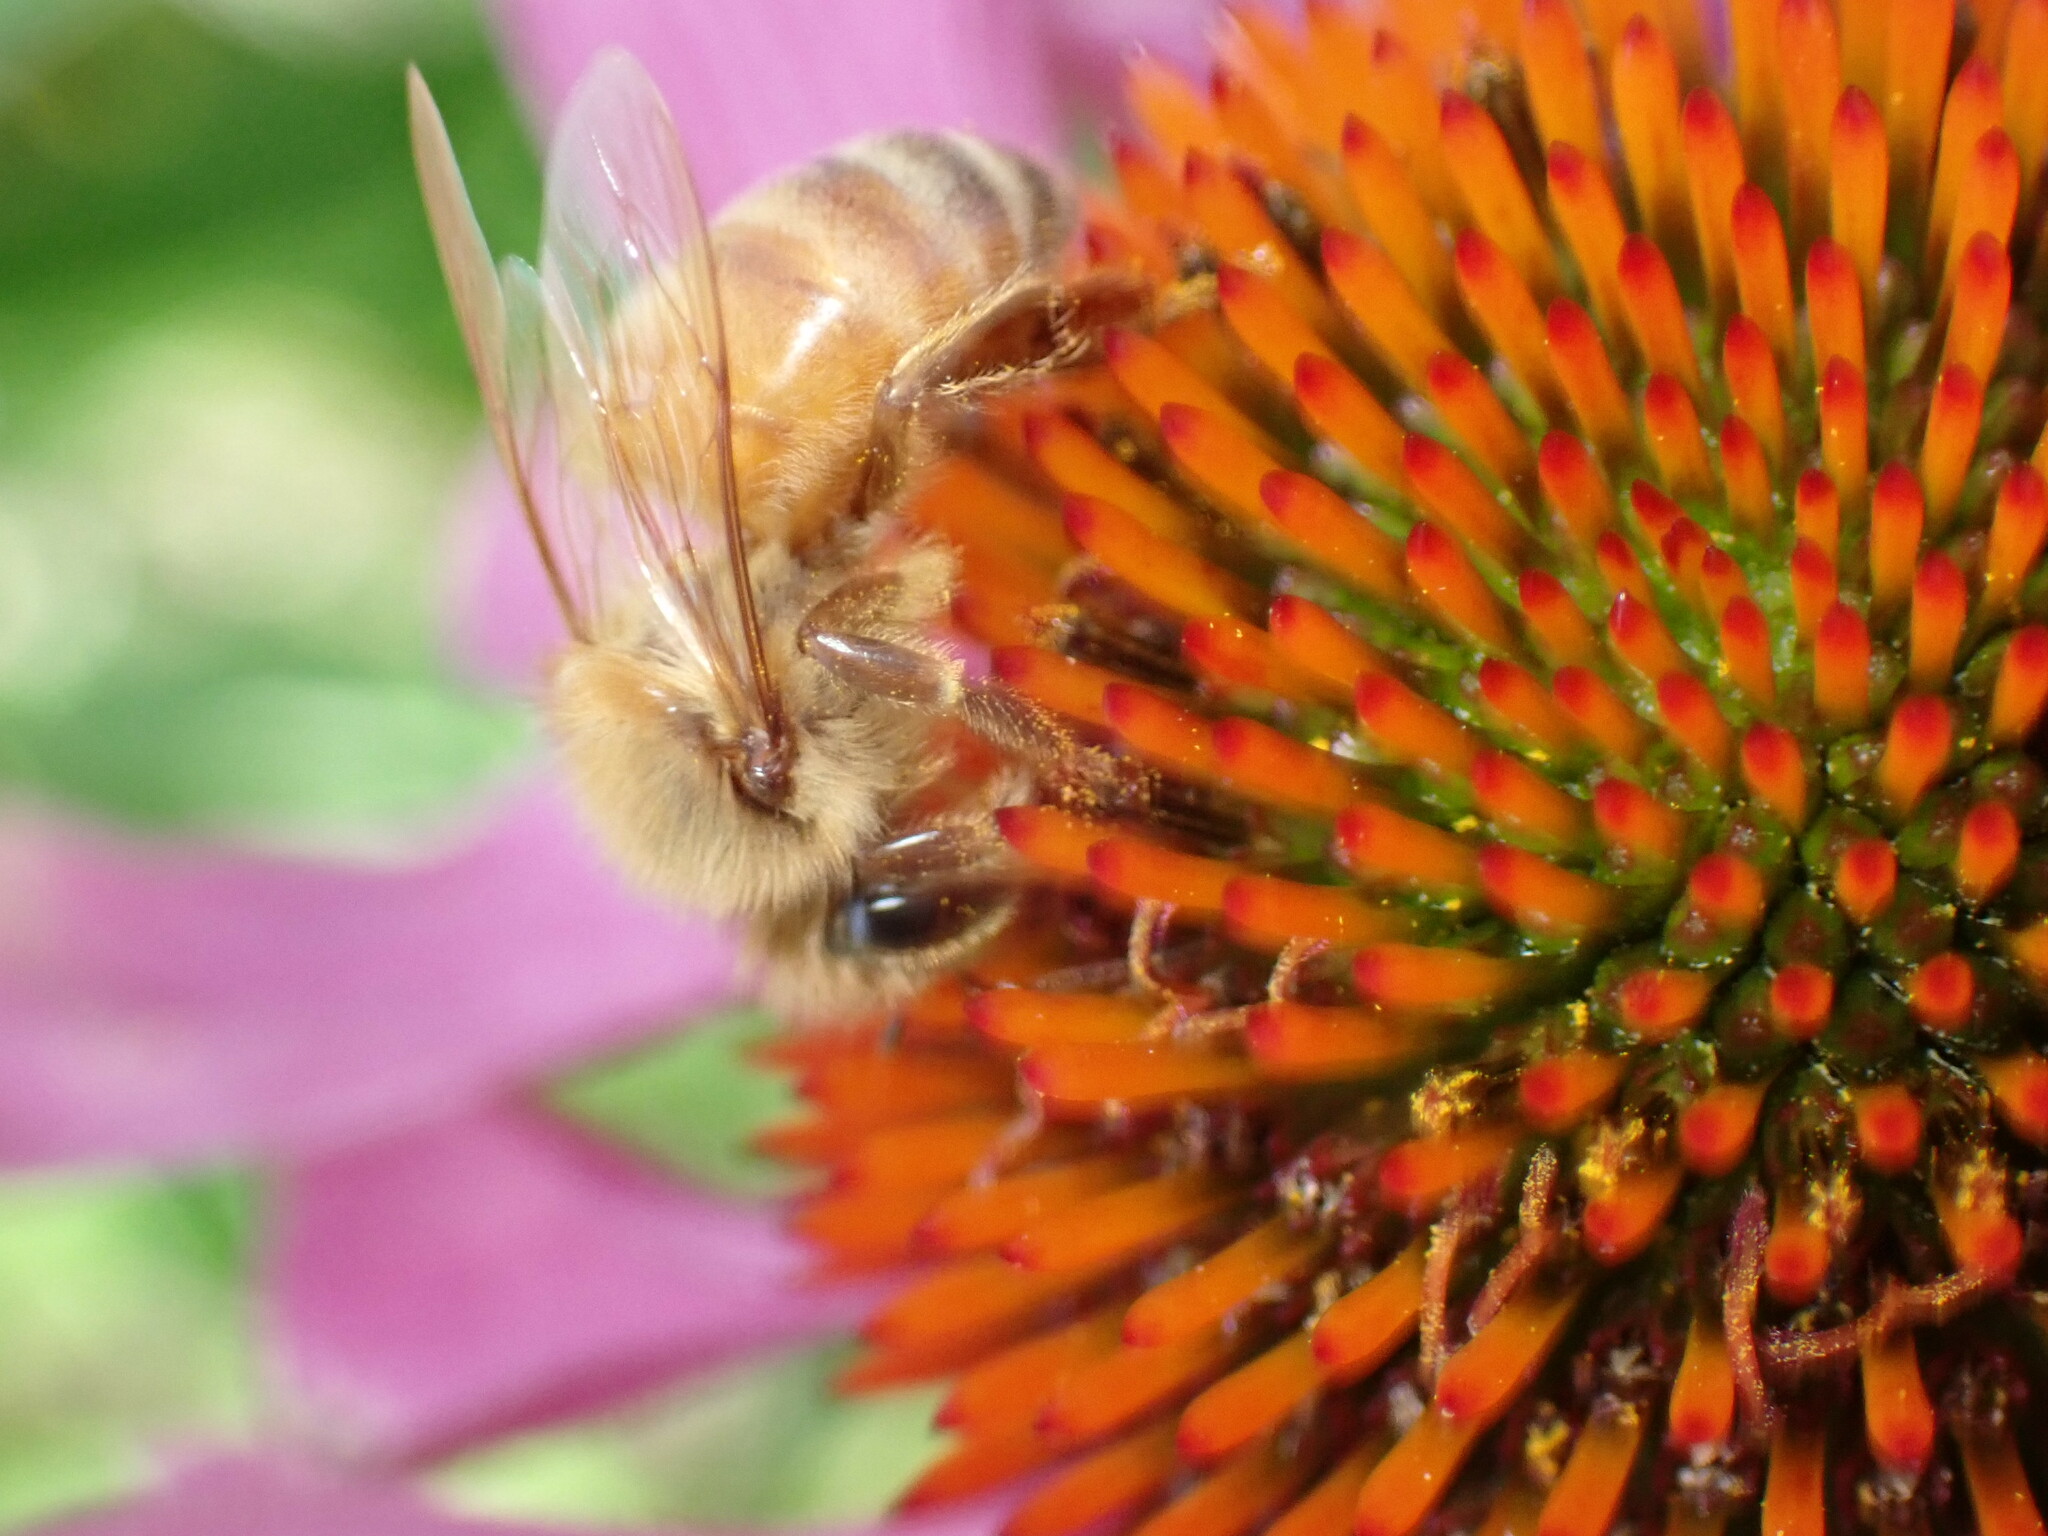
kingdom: Animalia
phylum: Arthropoda
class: Insecta
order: Hymenoptera
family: Apidae
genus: Apis
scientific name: Apis mellifera
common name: Honey bee
